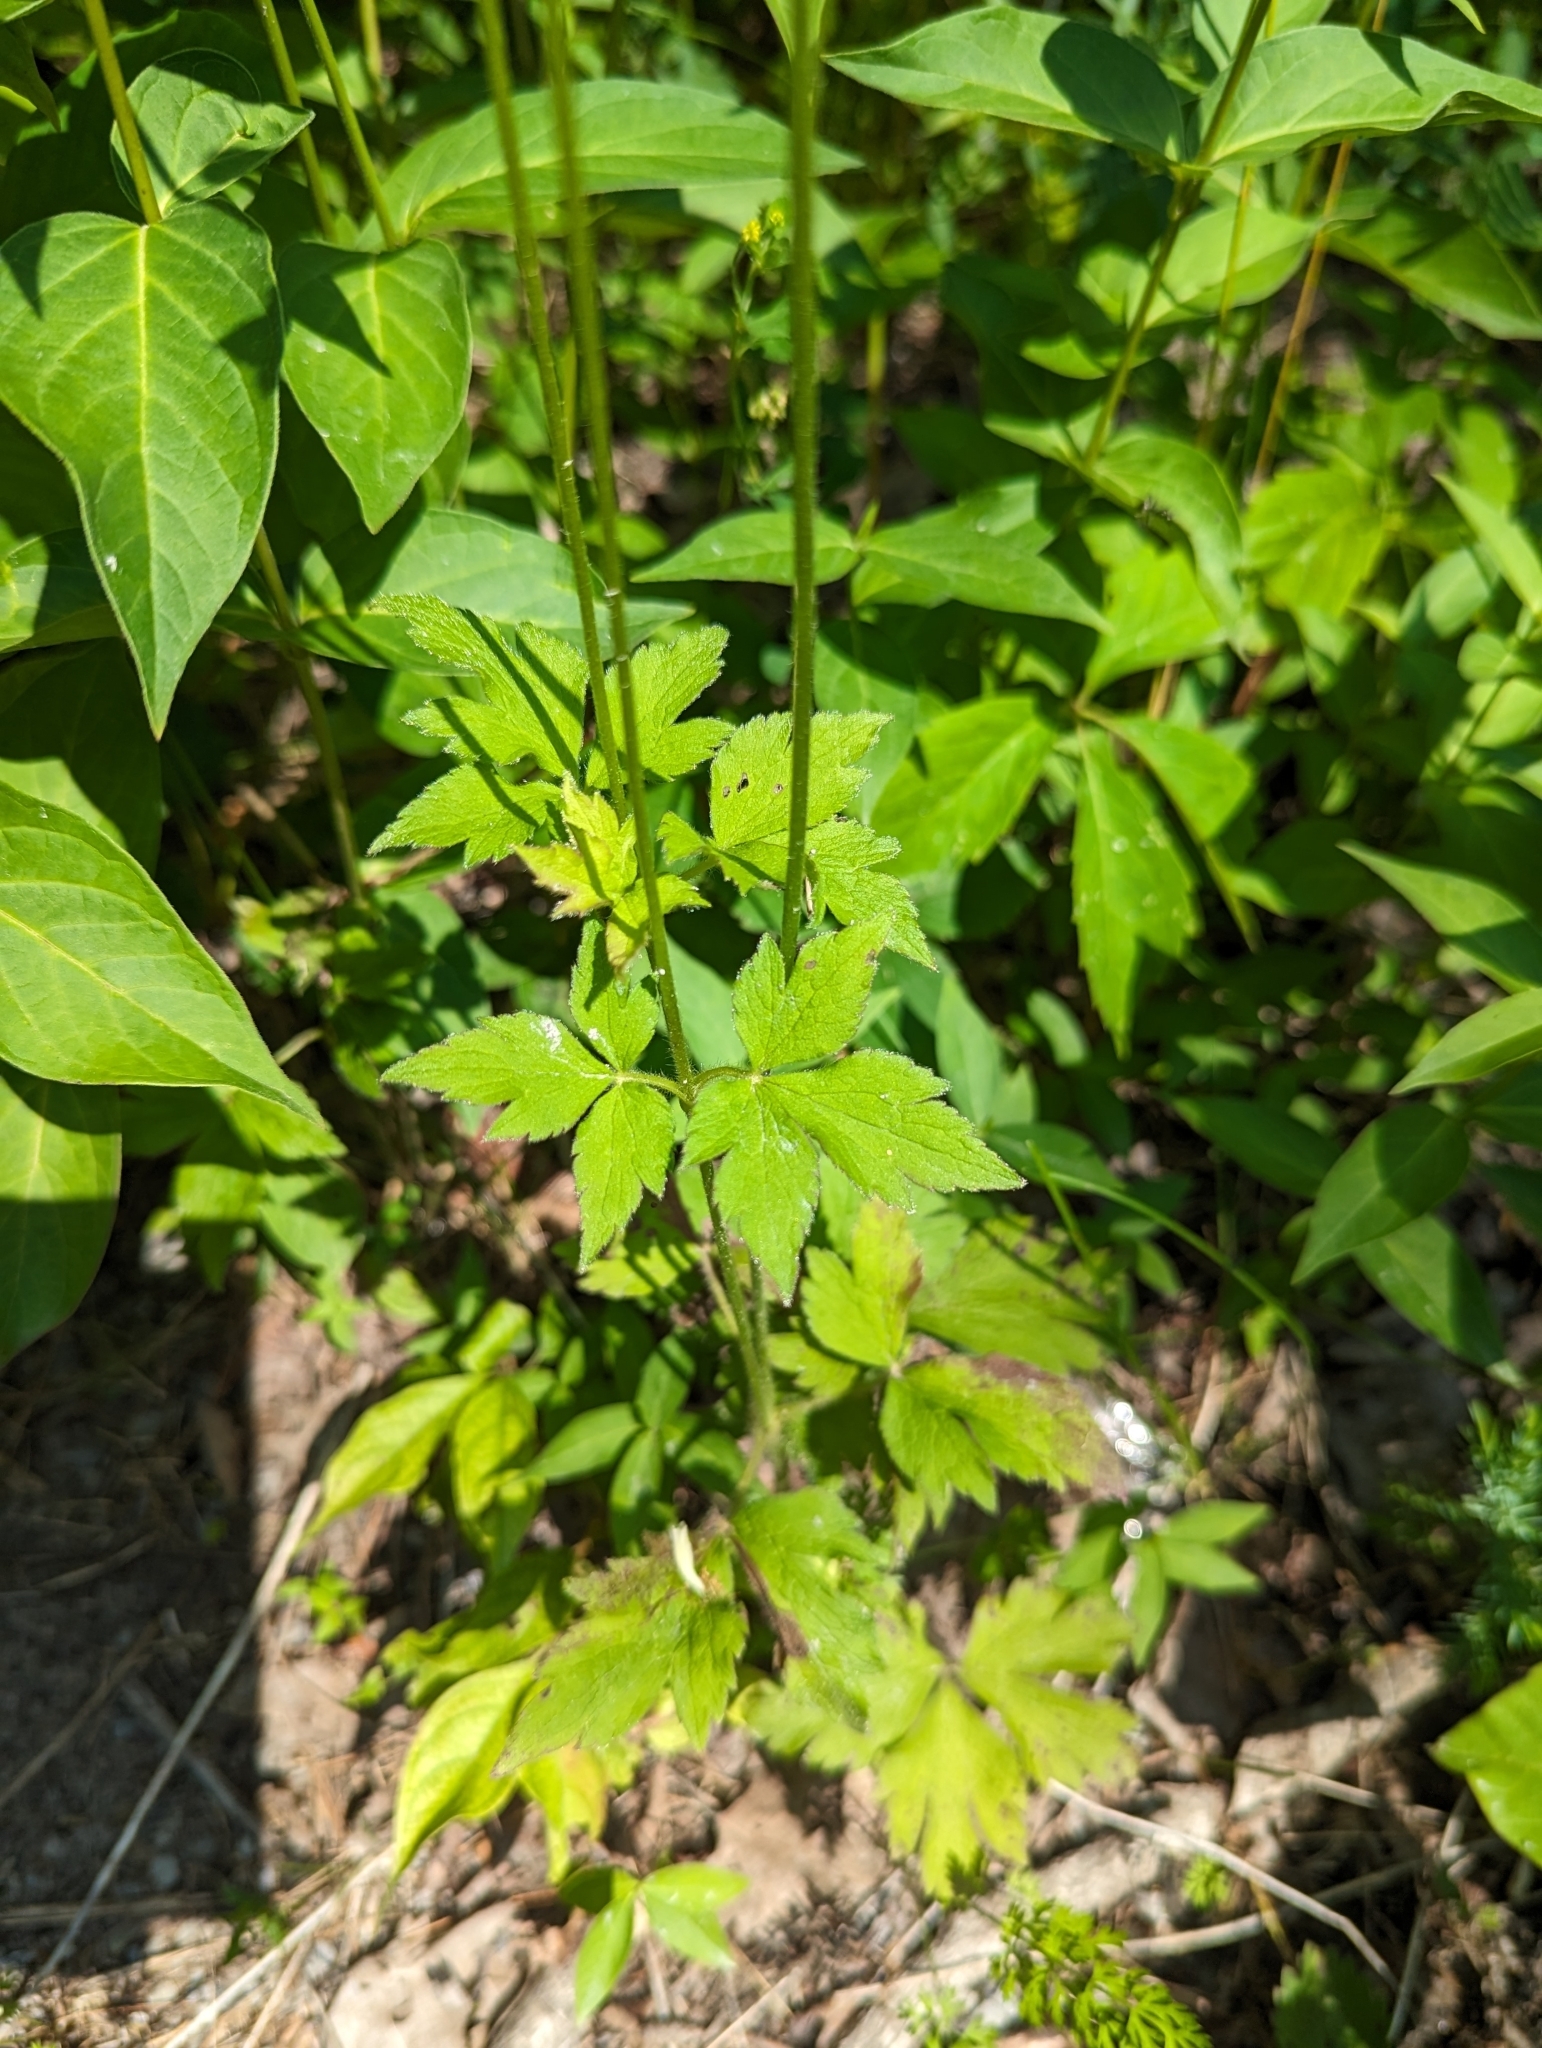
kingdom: Plantae
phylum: Tracheophyta
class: Magnoliopsida
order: Ranunculales
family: Ranunculaceae
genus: Anemone
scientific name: Anemone virginiana
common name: Tall anemone
